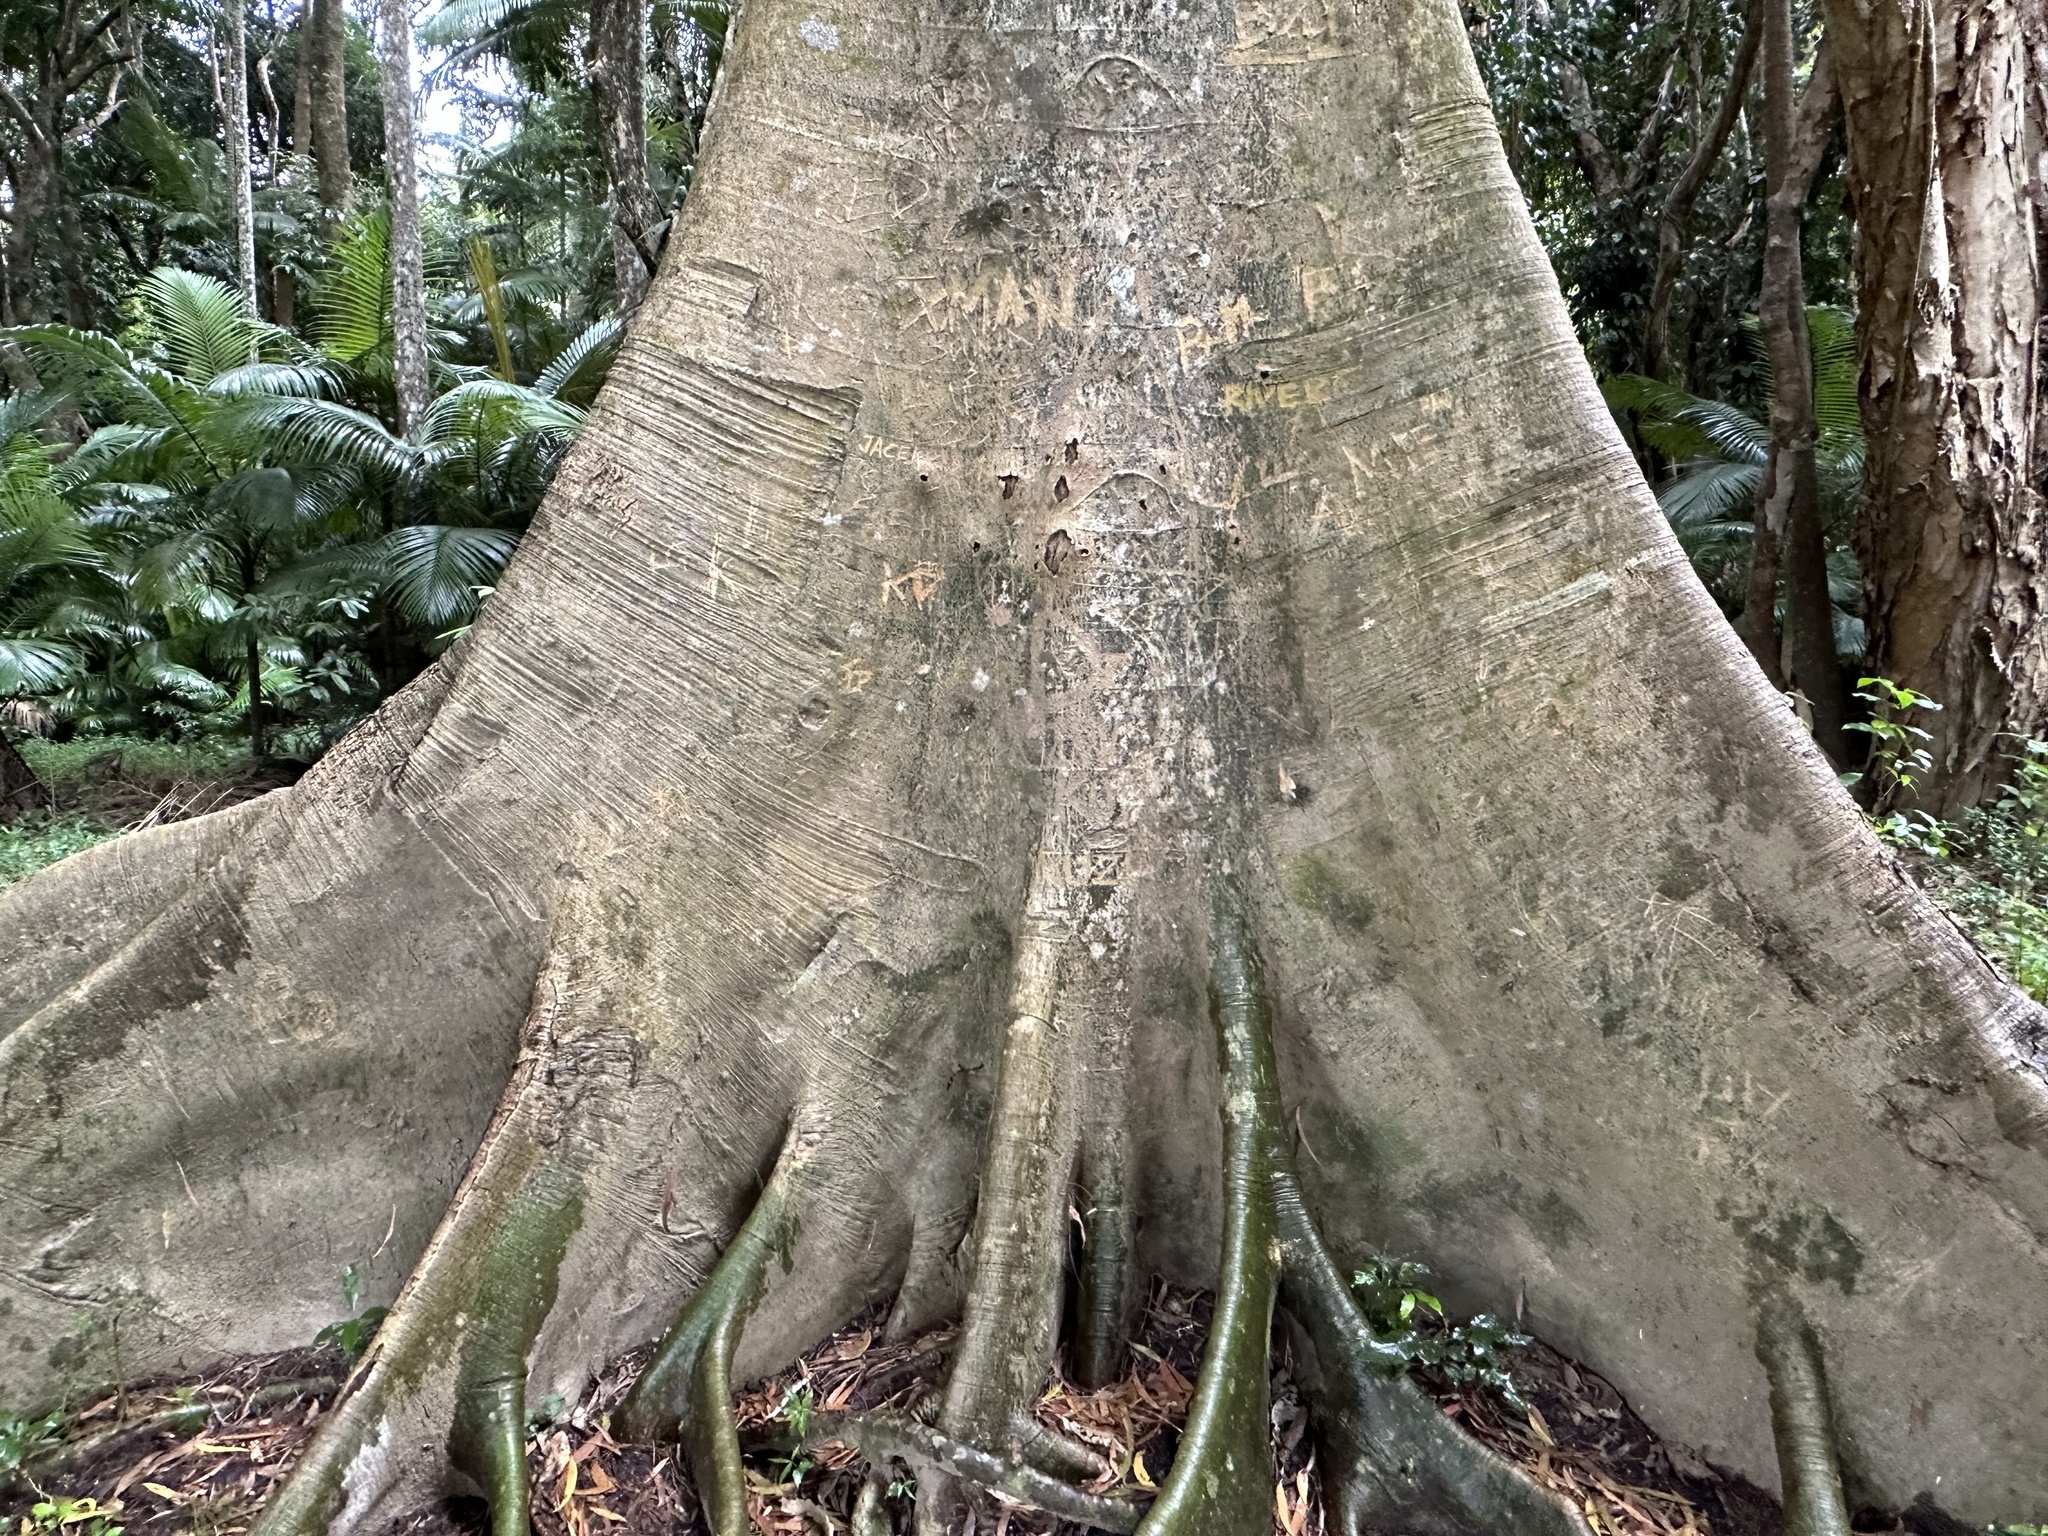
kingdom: Plantae
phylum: Tracheophyta
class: Magnoliopsida
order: Rosales
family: Moraceae
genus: Ficus
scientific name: Ficus albipila
